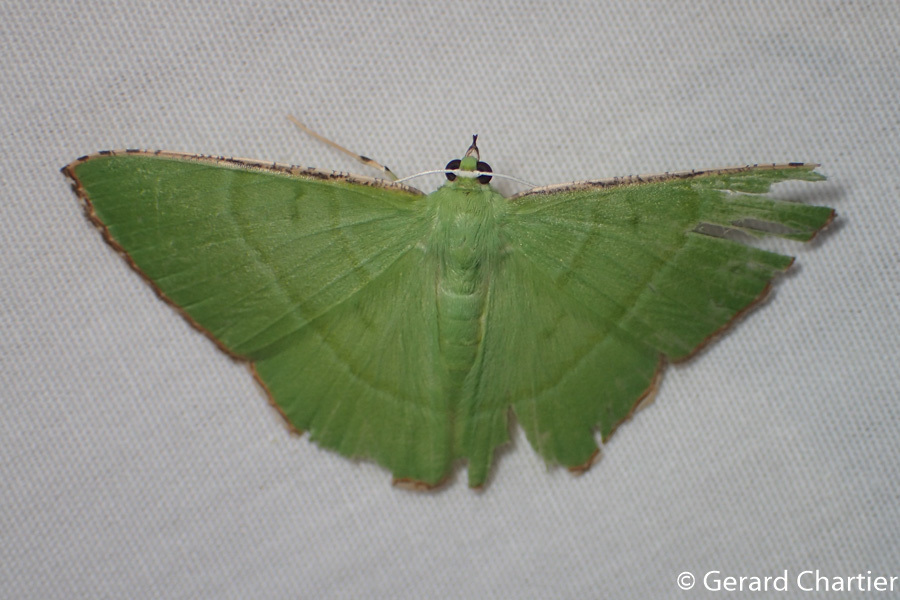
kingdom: Animalia
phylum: Arthropoda
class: Insecta
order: Lepidoptera
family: Geometridae
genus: Ornithospila
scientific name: Ornithospila succincta
